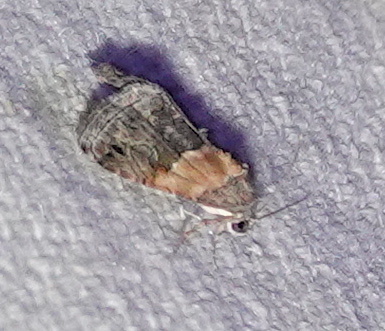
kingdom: Animalia
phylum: Arthropoda
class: Insecta
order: Lepidoptera
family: Noctuidae
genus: Tripudia
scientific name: Tripudia balteata
